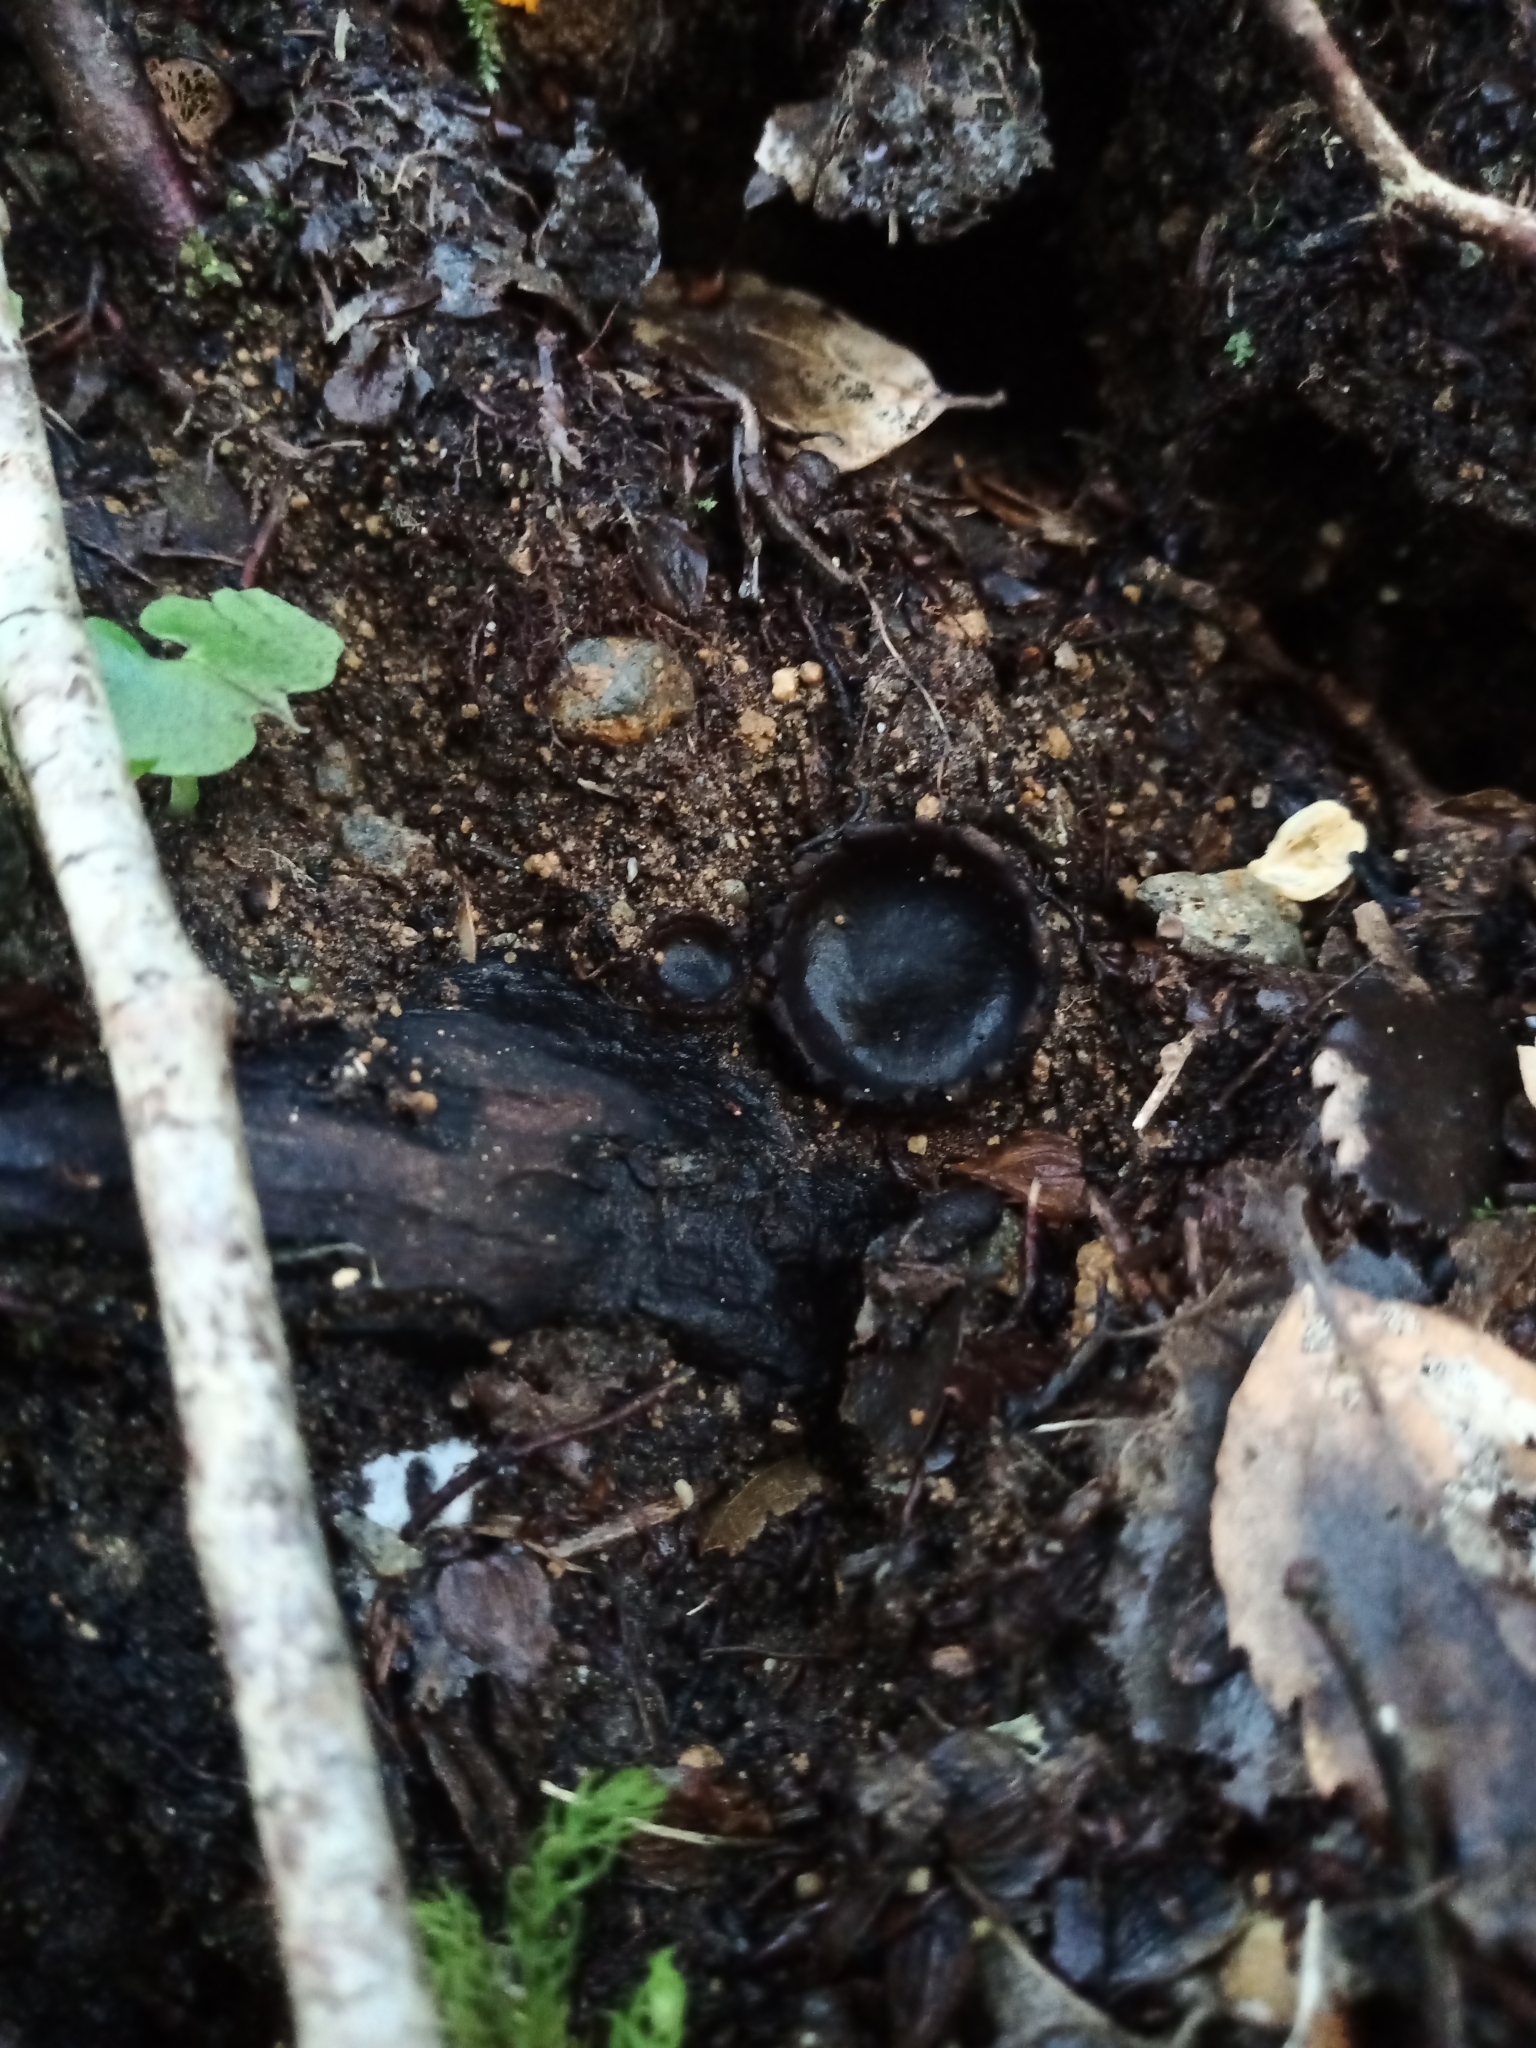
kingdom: Fungi
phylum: Ascomycota
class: Pezizomycetes
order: Pezizales
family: Sarcosomataceae
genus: Plectania
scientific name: Plectania rhytidia
